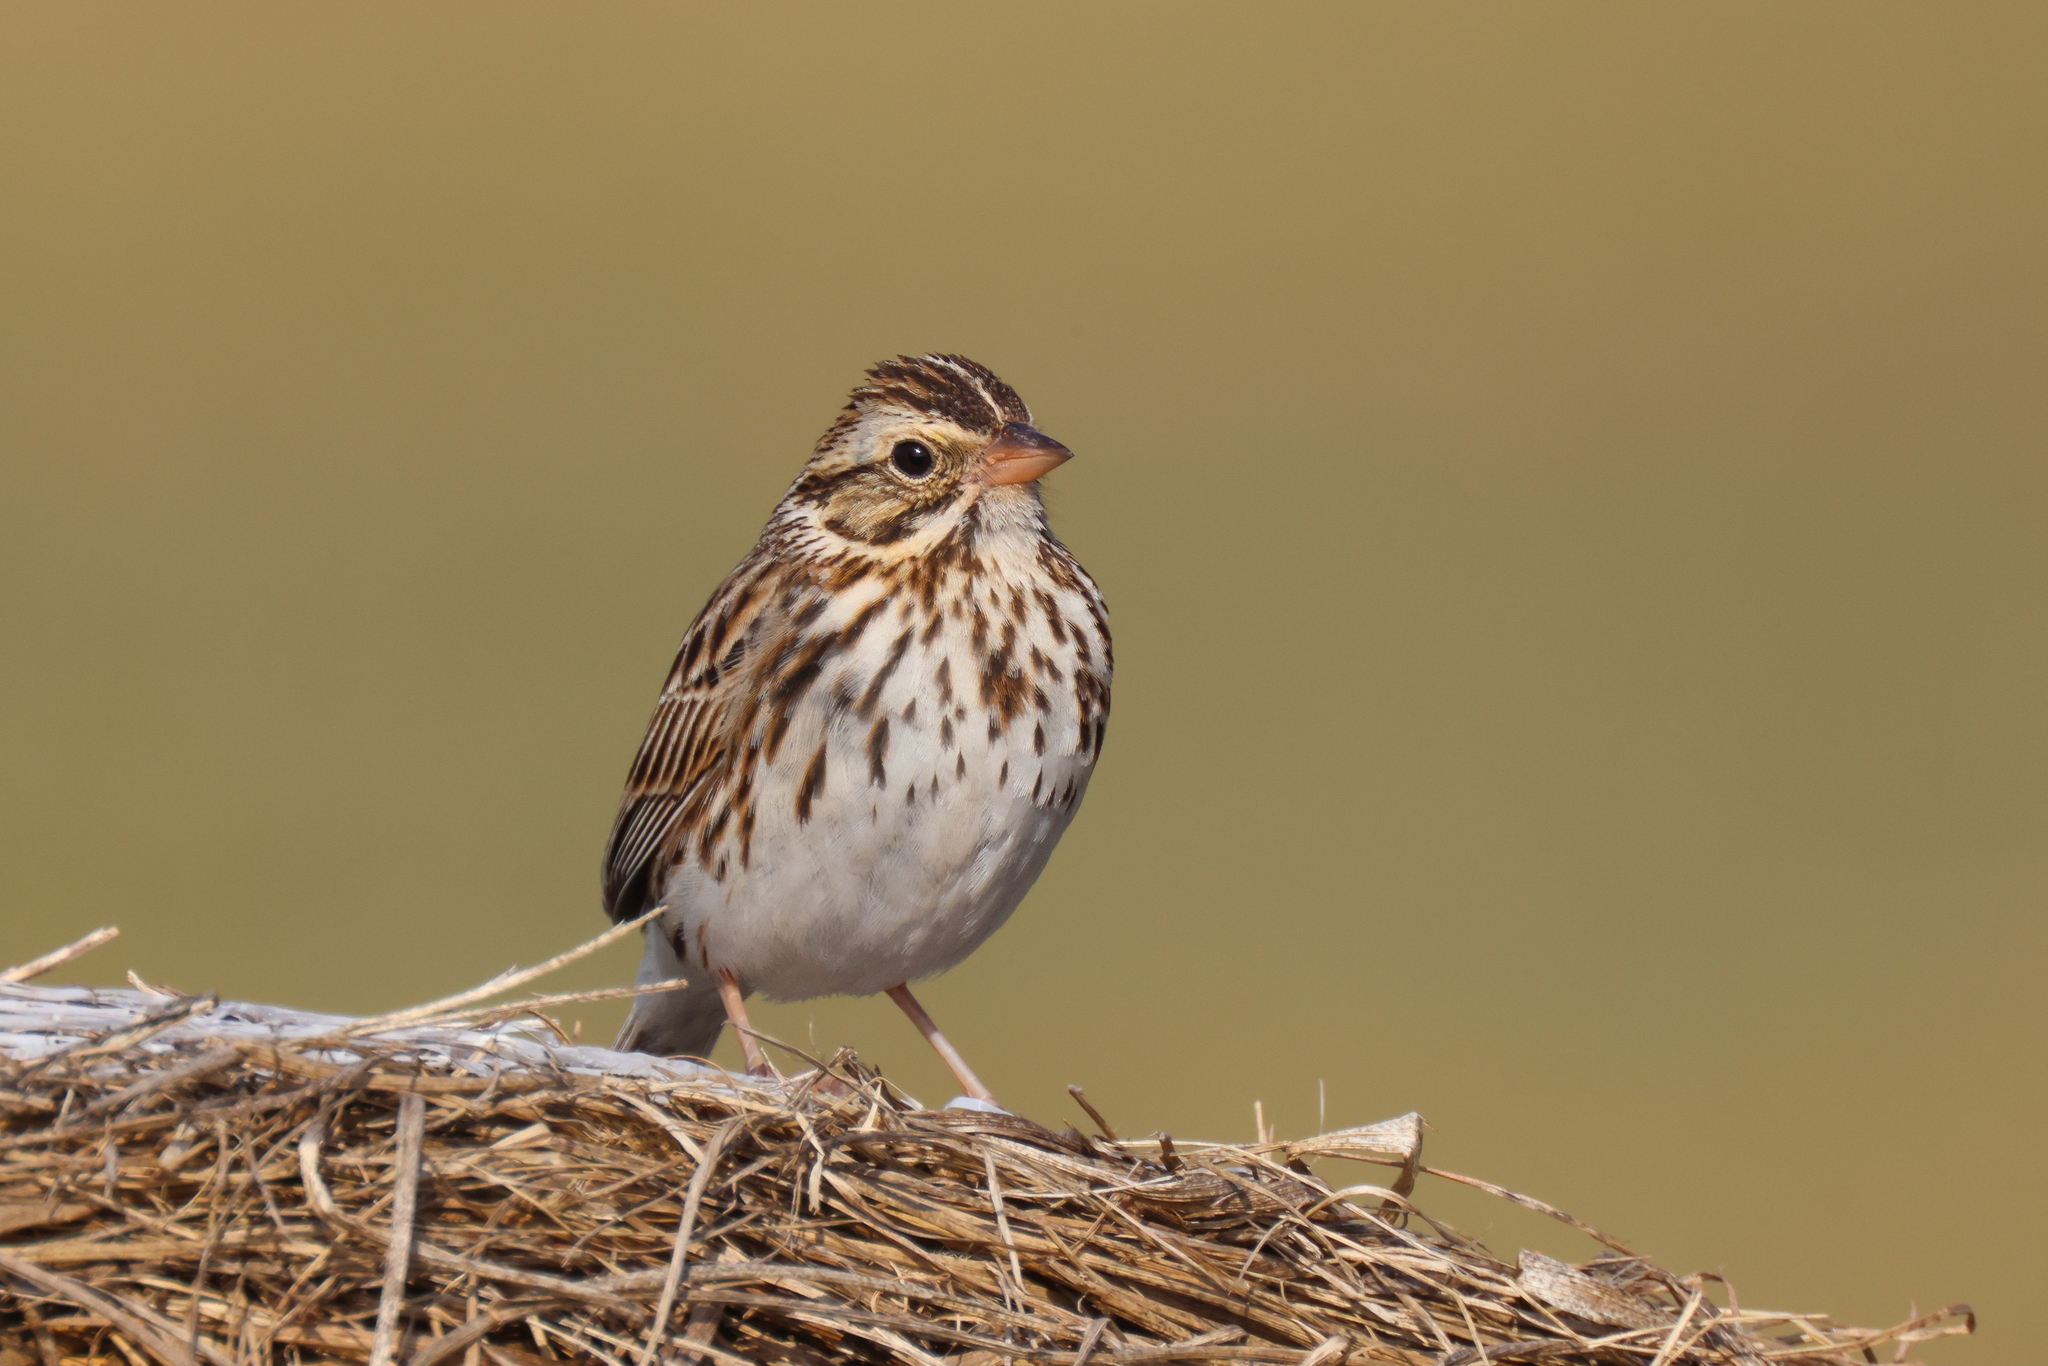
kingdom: Animalia
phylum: Chordata
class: Aves
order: Passeriformes
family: Passerellidae
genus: Passerculus
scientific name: Passerculus sandwichensis
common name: Savannah sparrow
